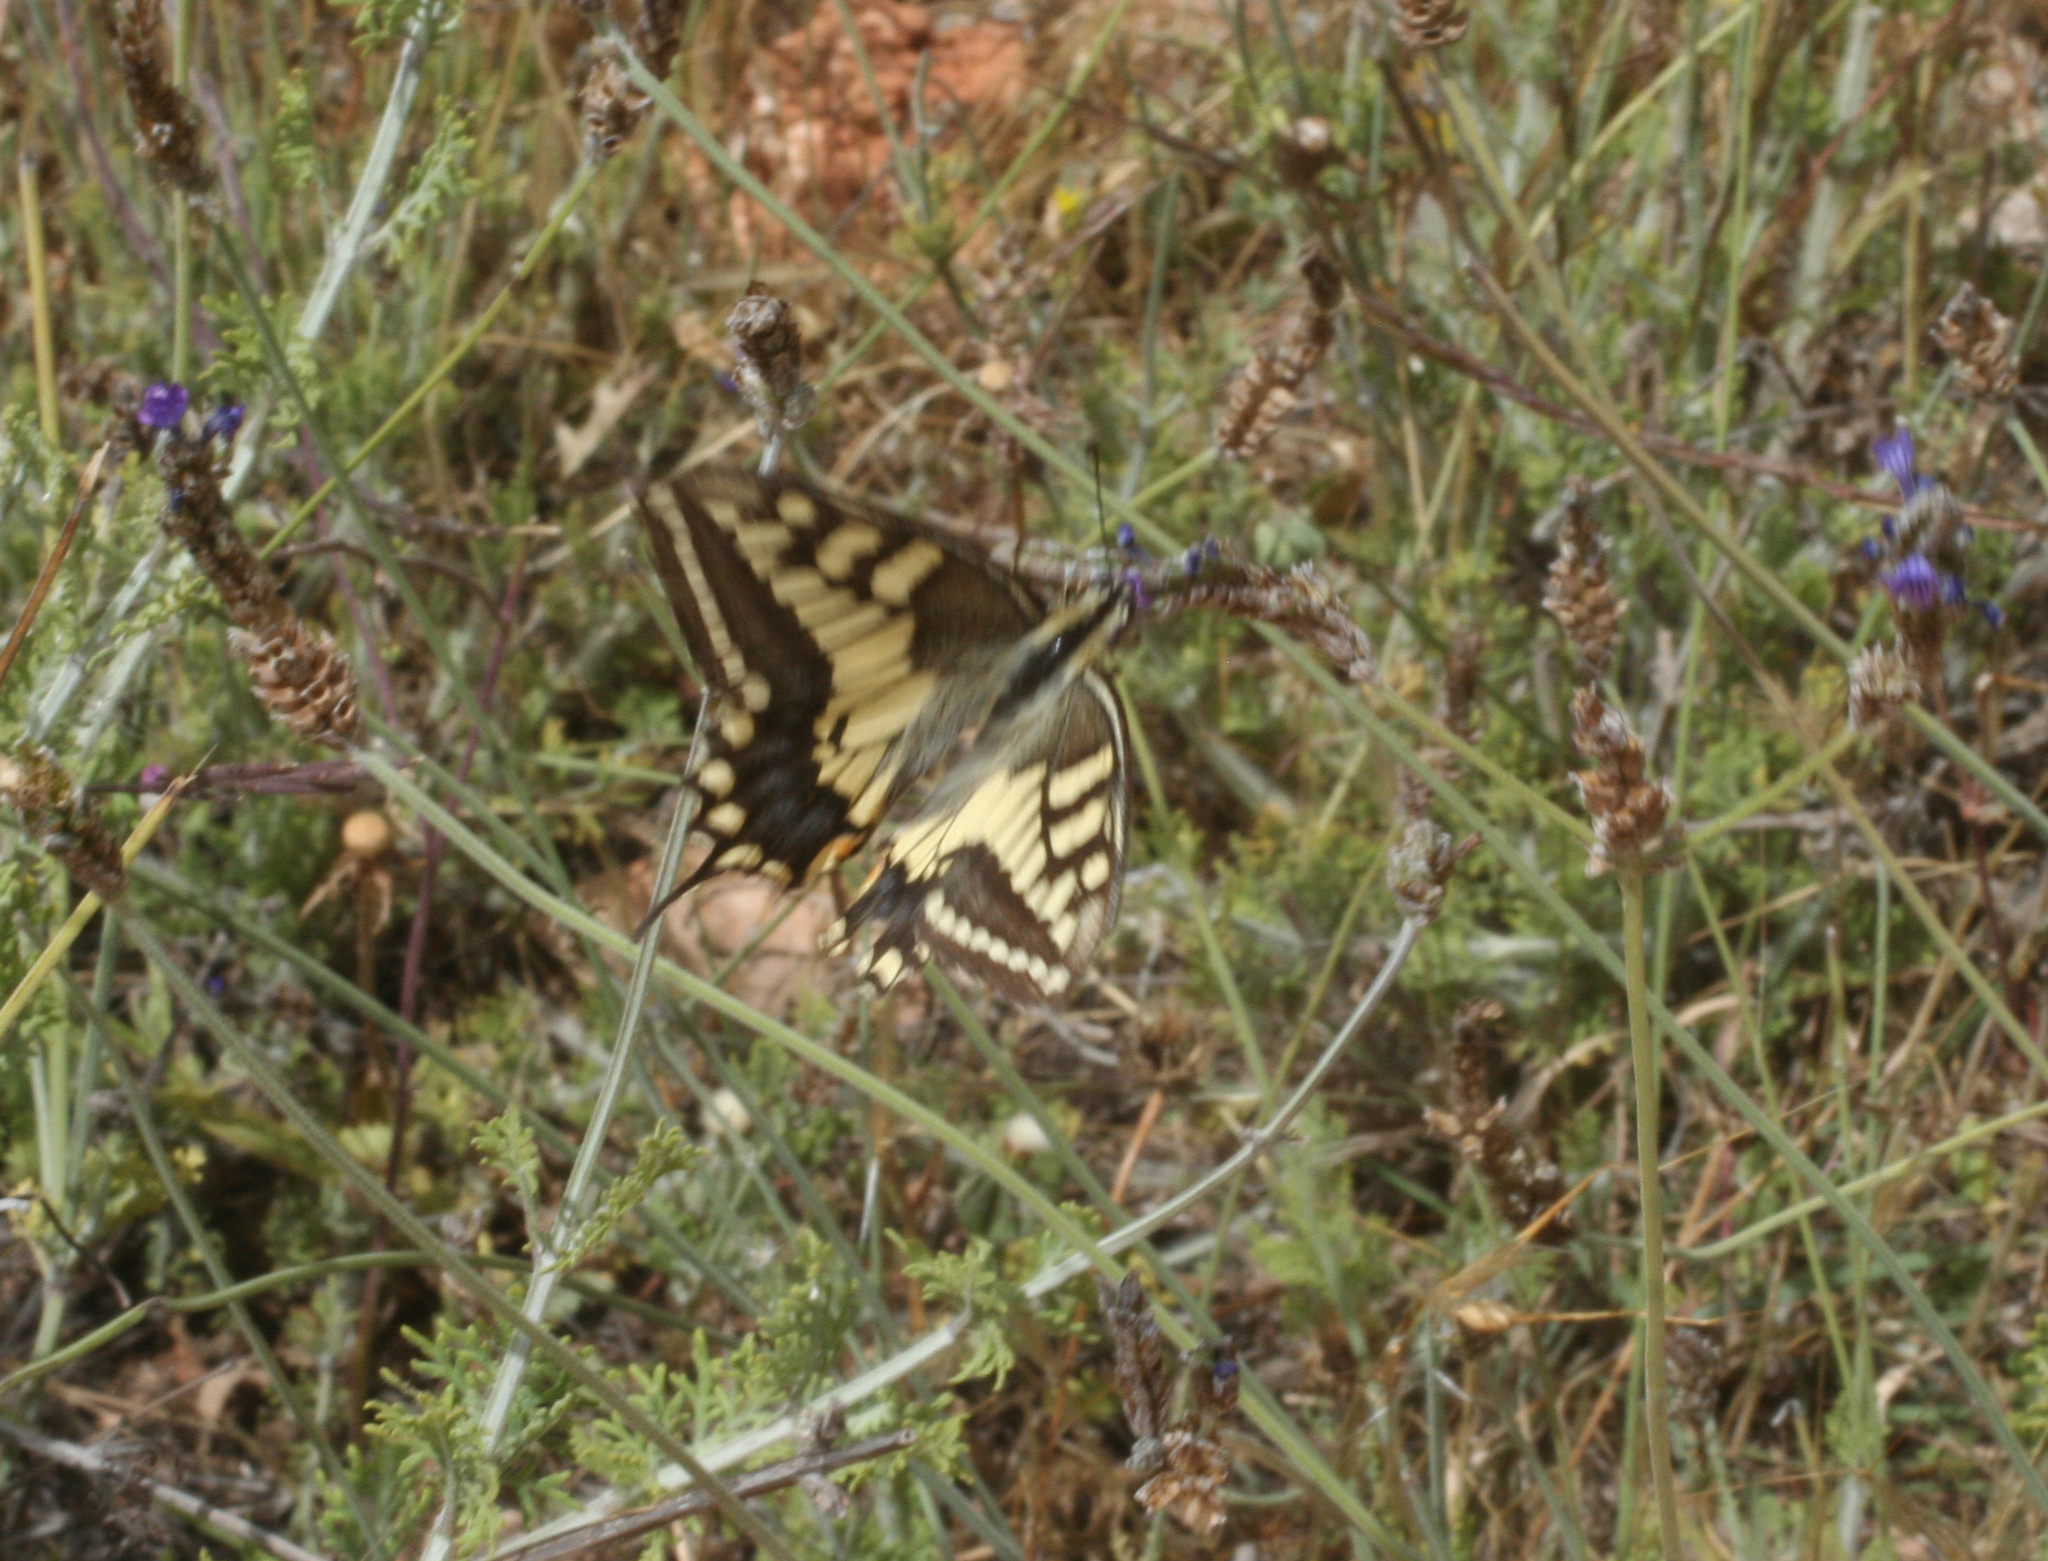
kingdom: Animalia
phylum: Arthropoda
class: Insecta
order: Lepidoptera
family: Papilionidae
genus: Papilio
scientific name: Papilio machaon
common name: Swallowtail
